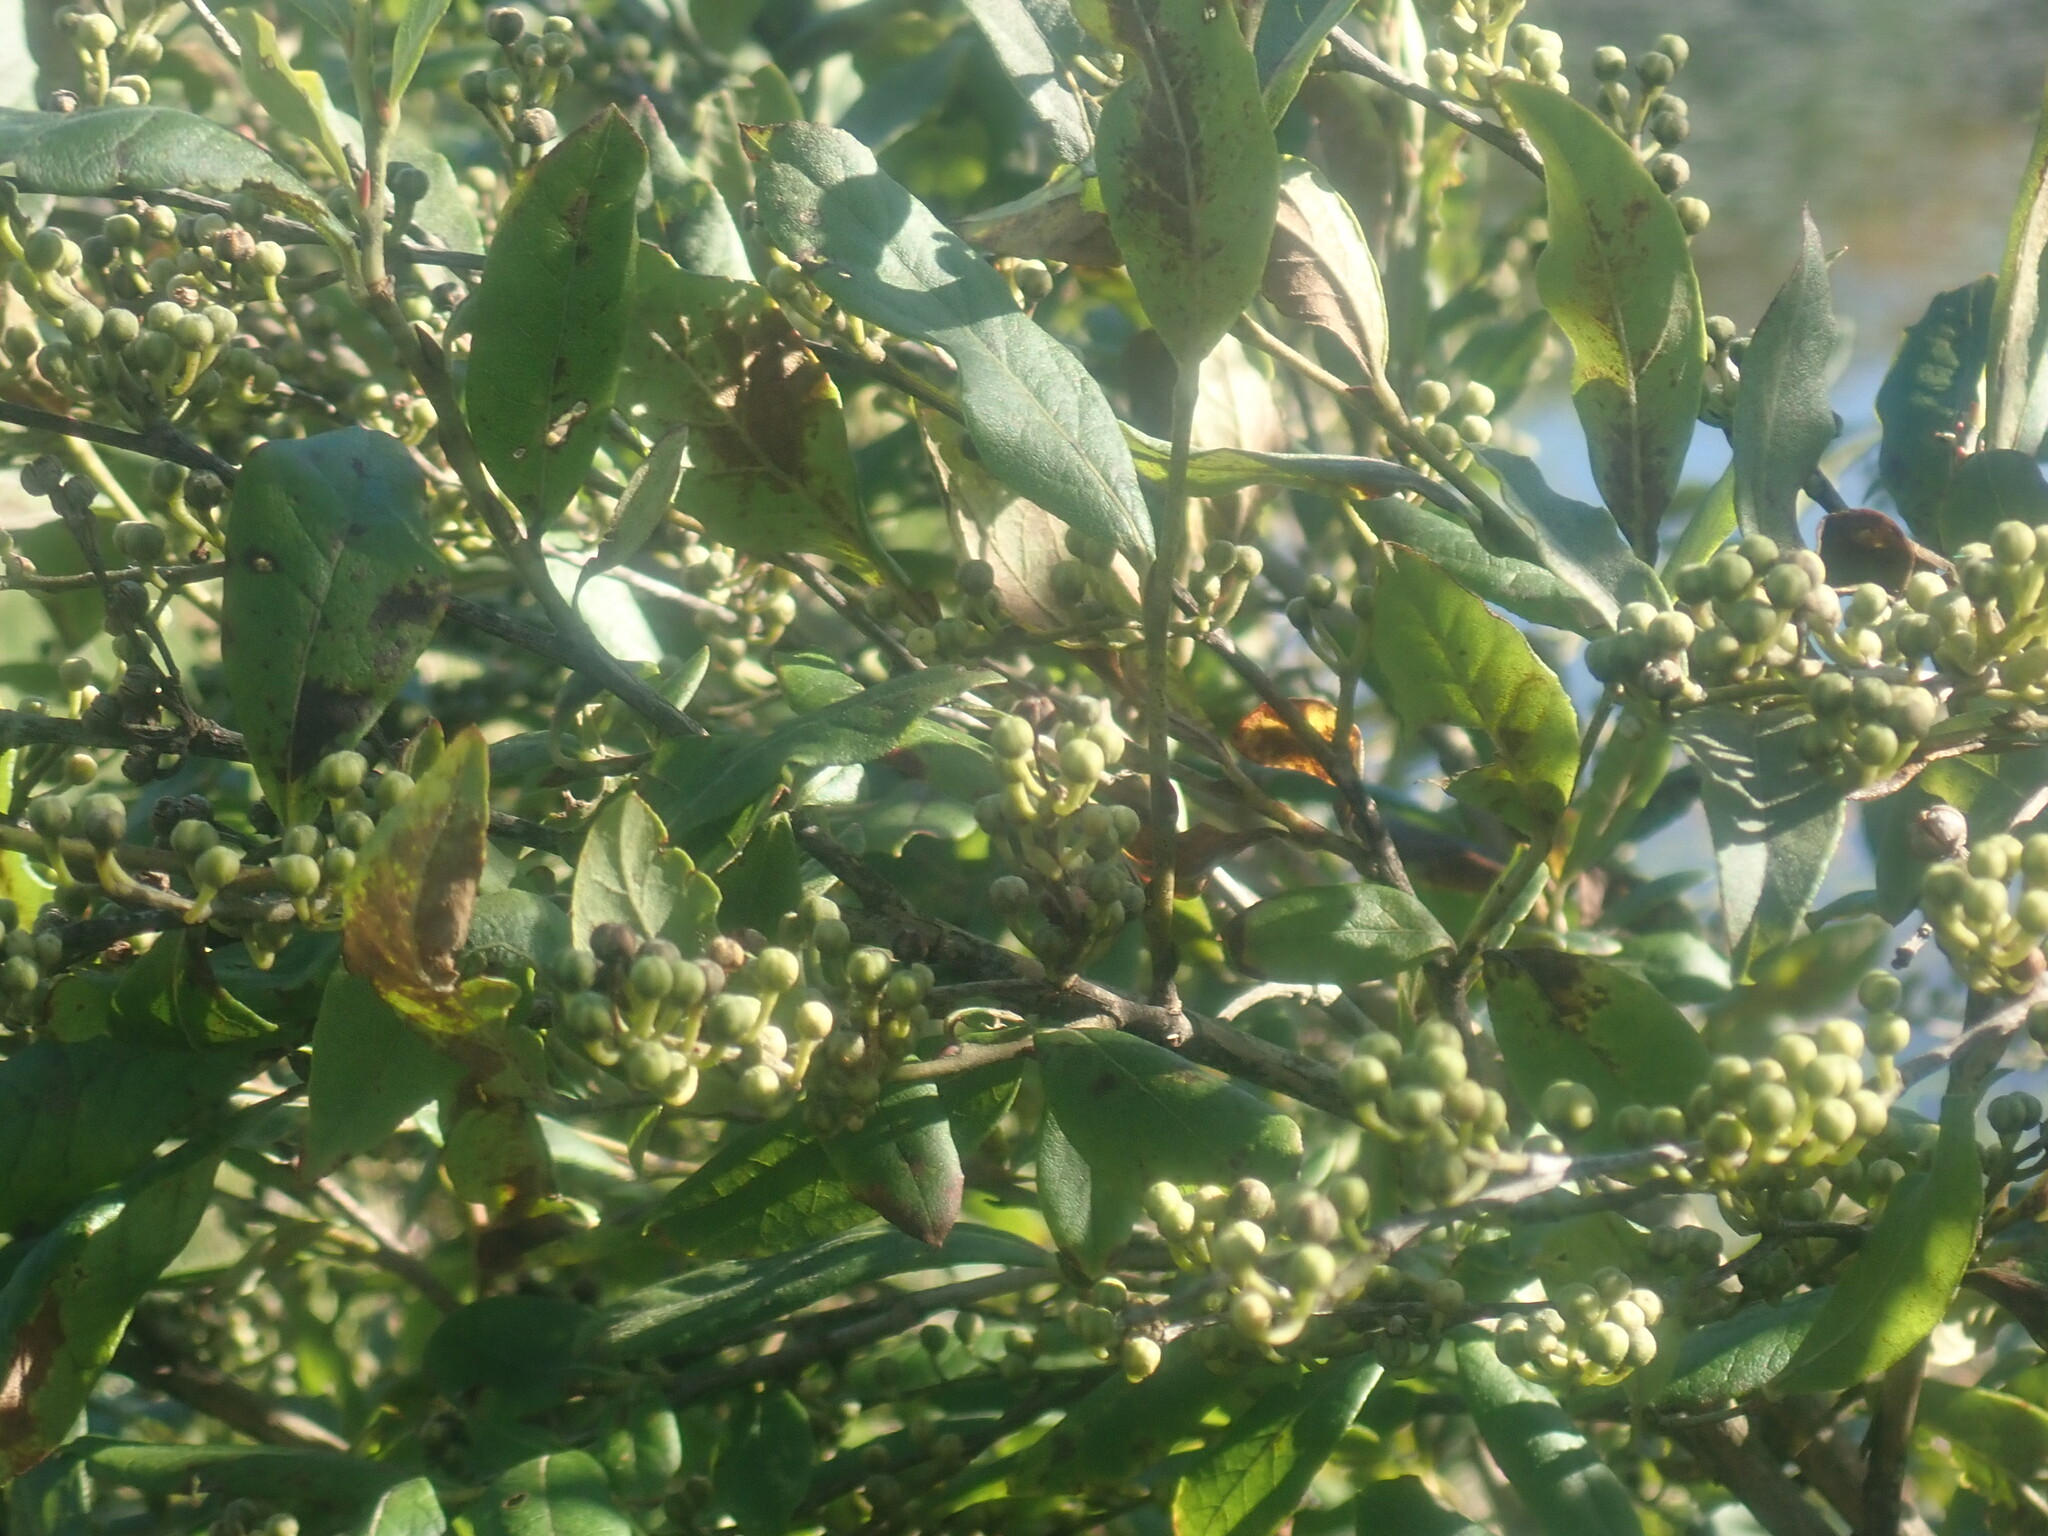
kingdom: Plantae
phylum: Tracheophyta
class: Magnoliopsida
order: Ericales
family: Ericaceae
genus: Lyonia
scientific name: Lyonia ligustrina
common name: Maleberry
